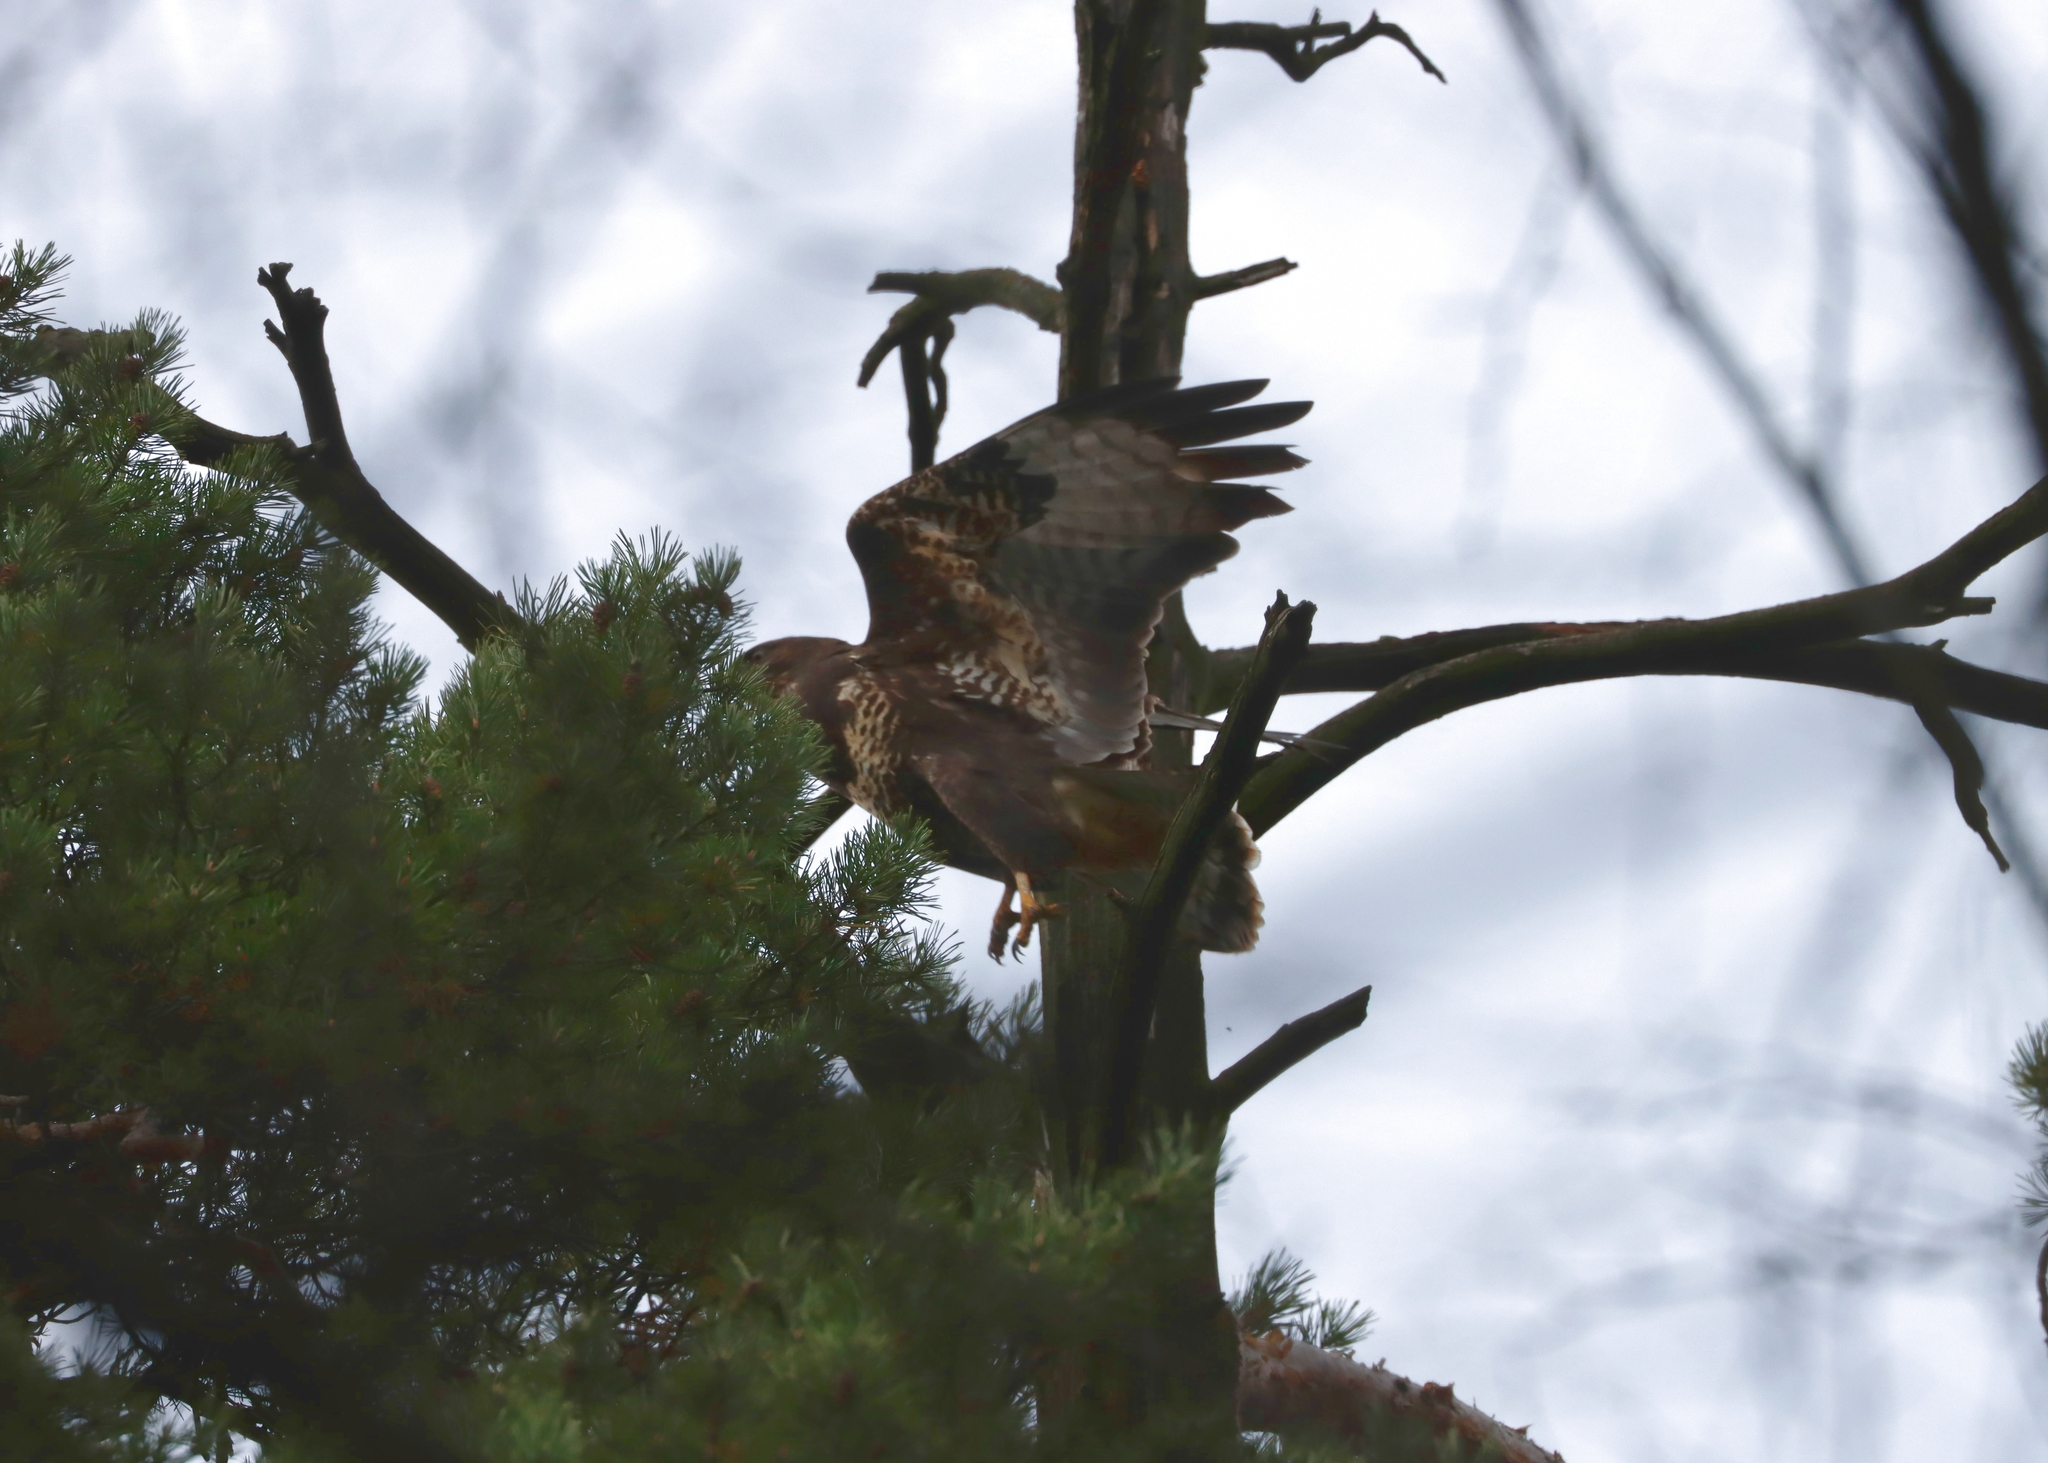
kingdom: Animalia
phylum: Chordata
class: Aves
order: Accipitriformes
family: Accipitridae
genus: Buteo
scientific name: Buteo buteo
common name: Common buzzard
